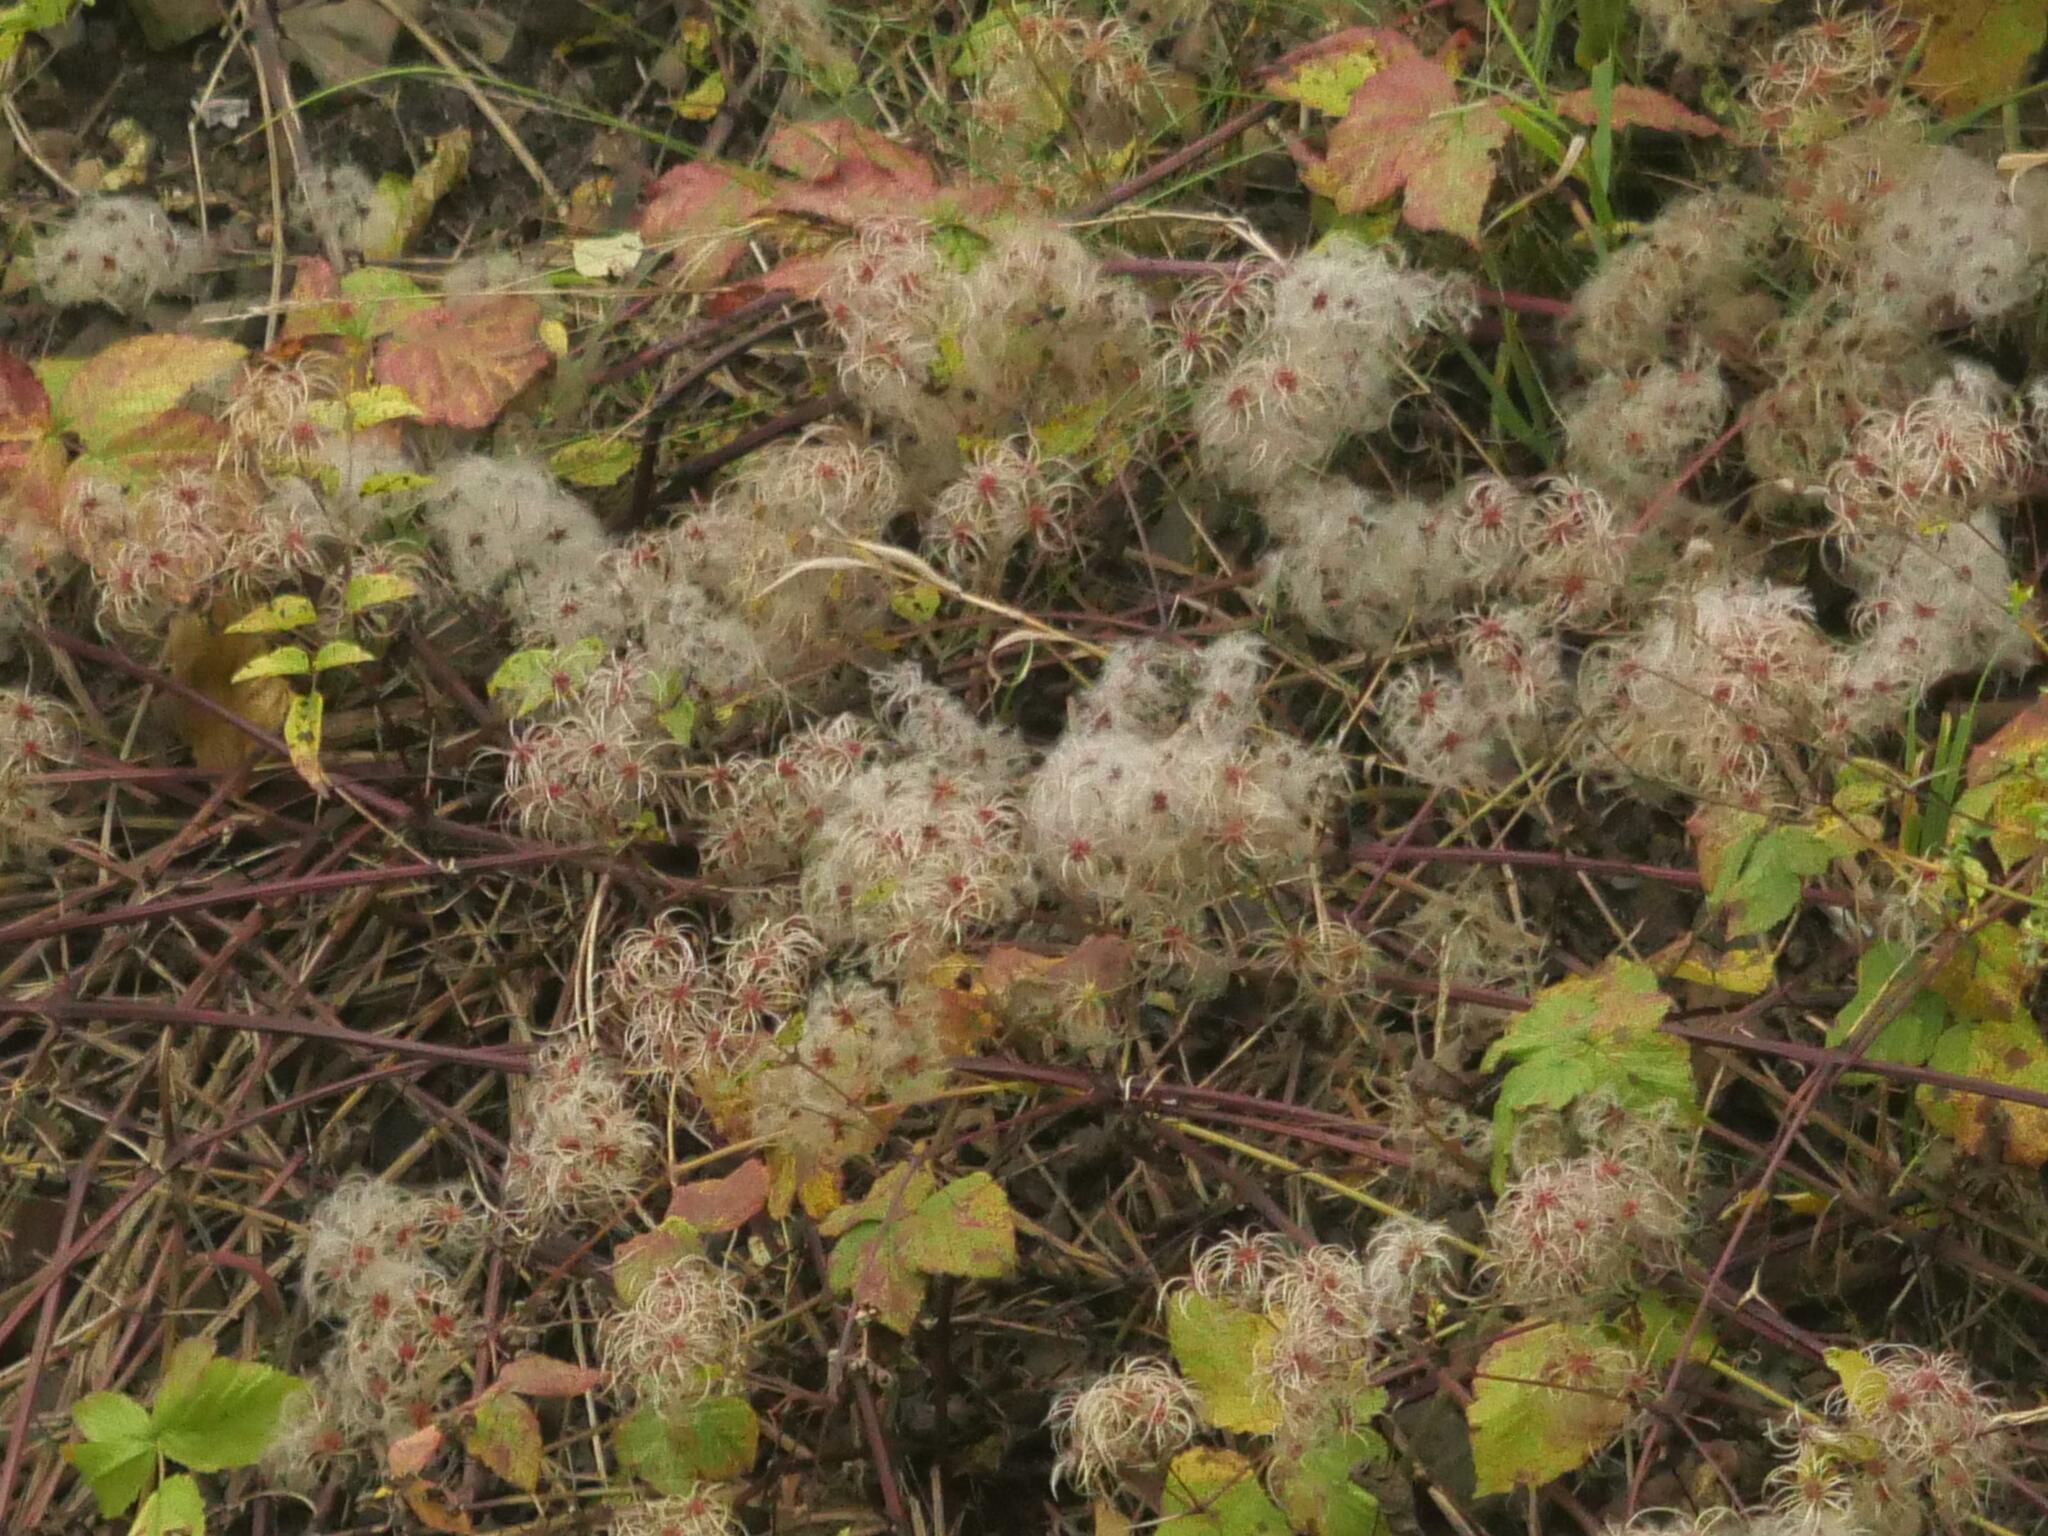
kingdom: Plantae
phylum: Tracheophyta
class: Magnoliopsida
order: Ranunculales
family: Ranunculaceae
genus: Clematis
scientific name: Clematis vitalba
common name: Evergreen clematis
